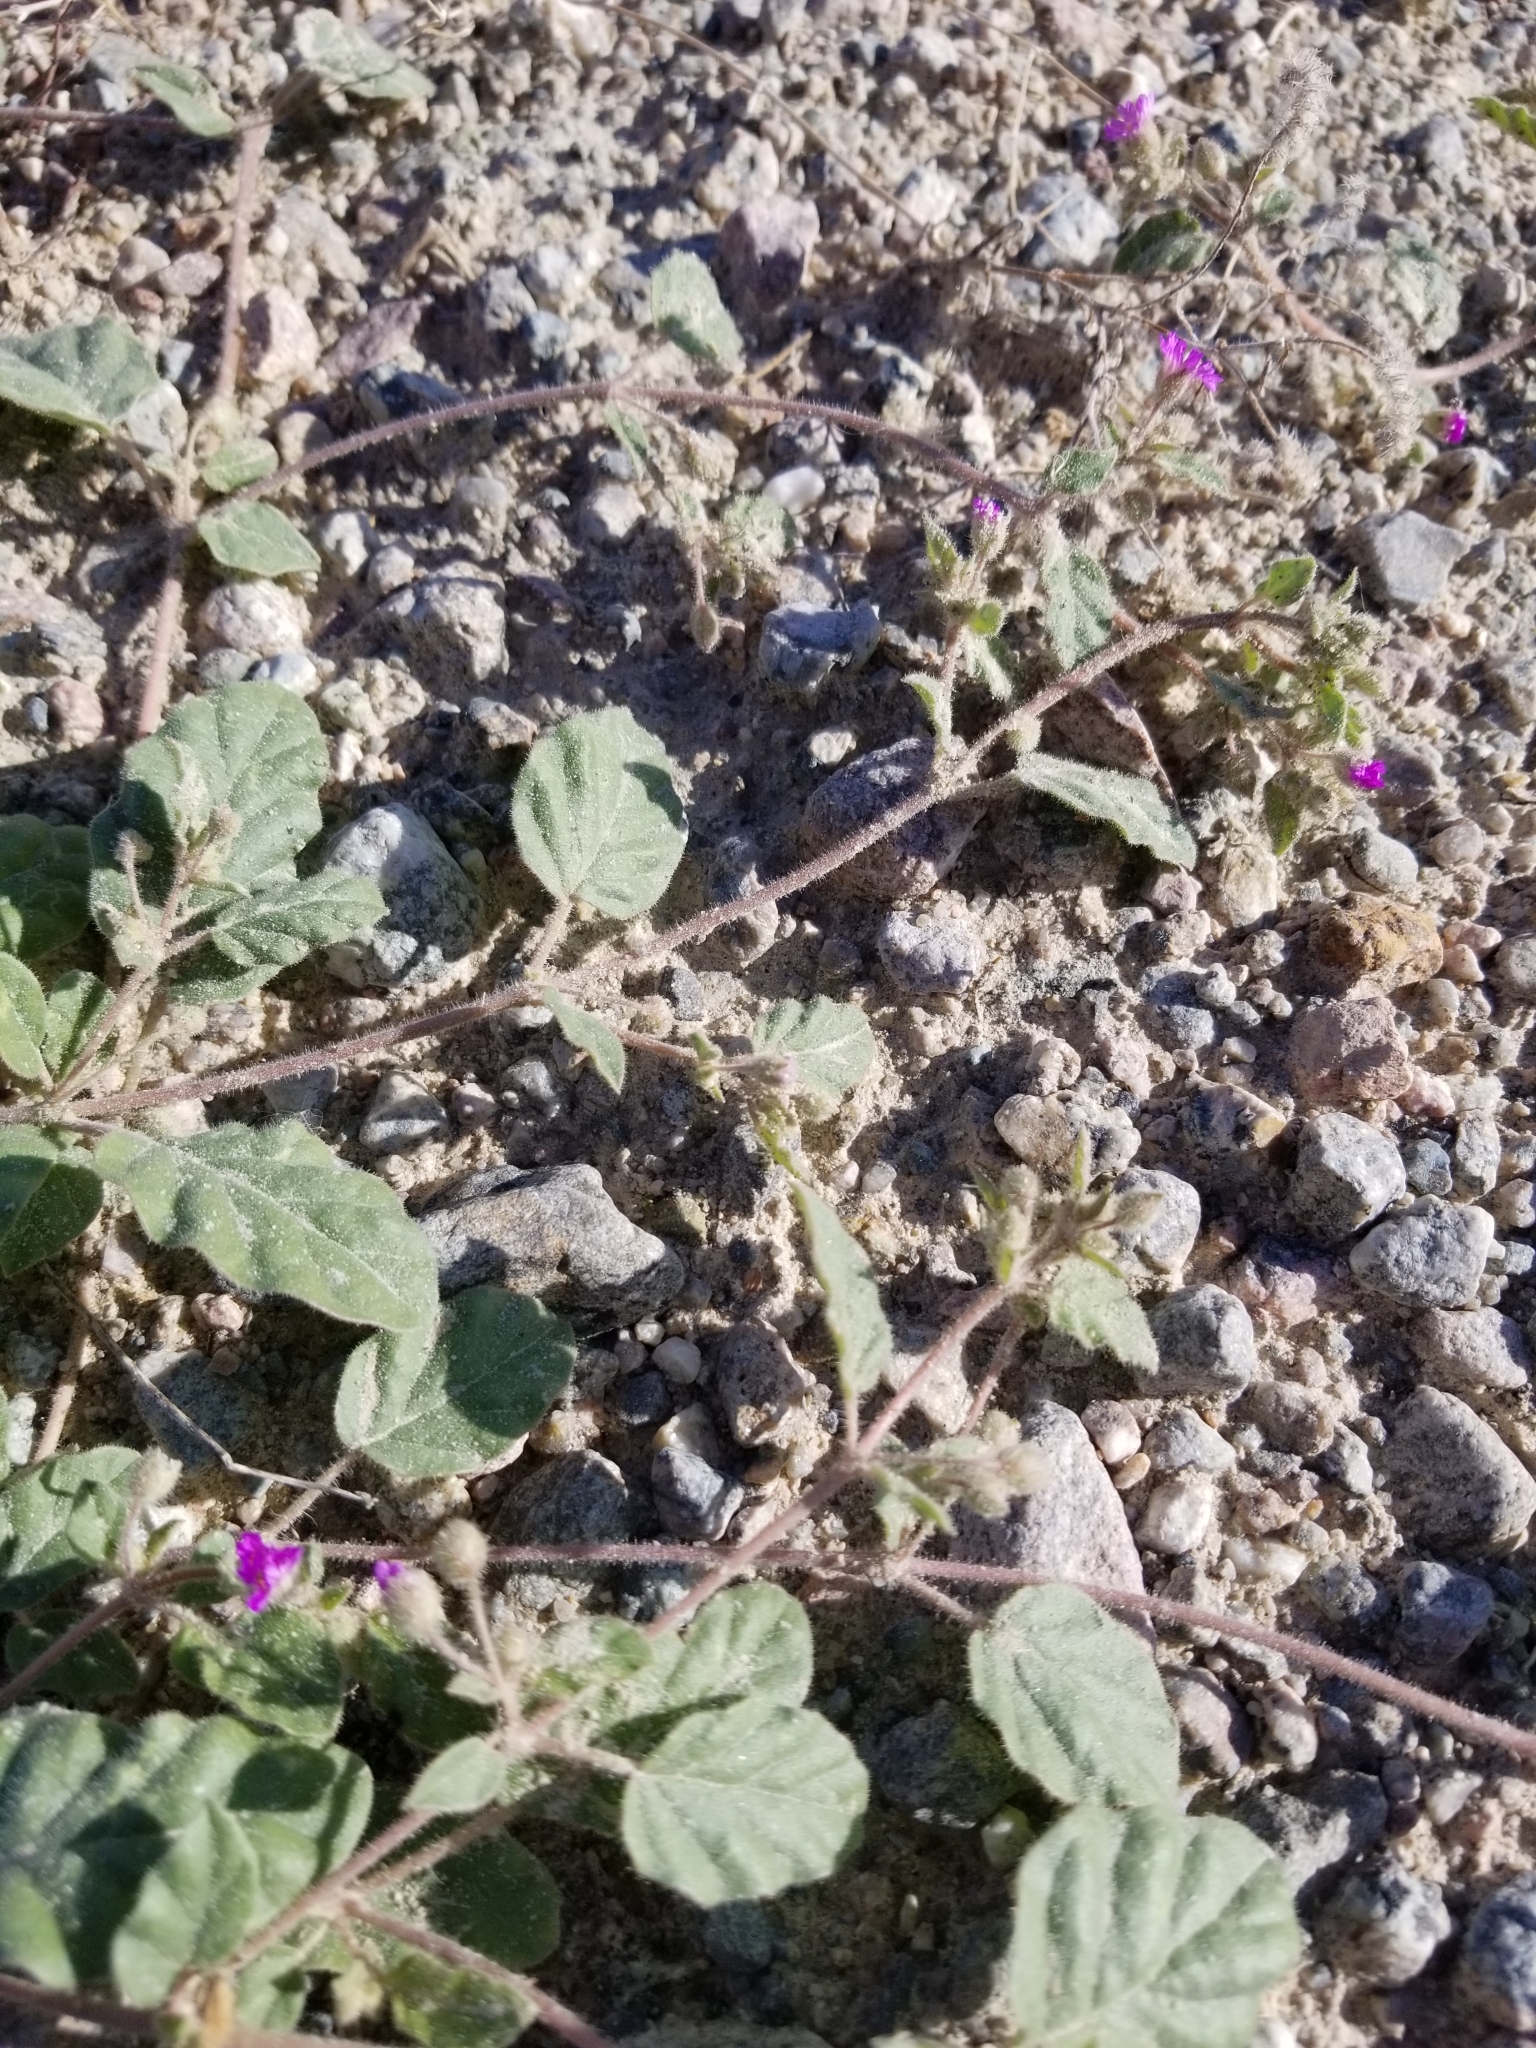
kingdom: Plantae
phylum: Tracheophyta
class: Magnoliopsida
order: Caryophyllales
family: Nyctaginaceae
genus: Allionia
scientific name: Allionia incarnata
